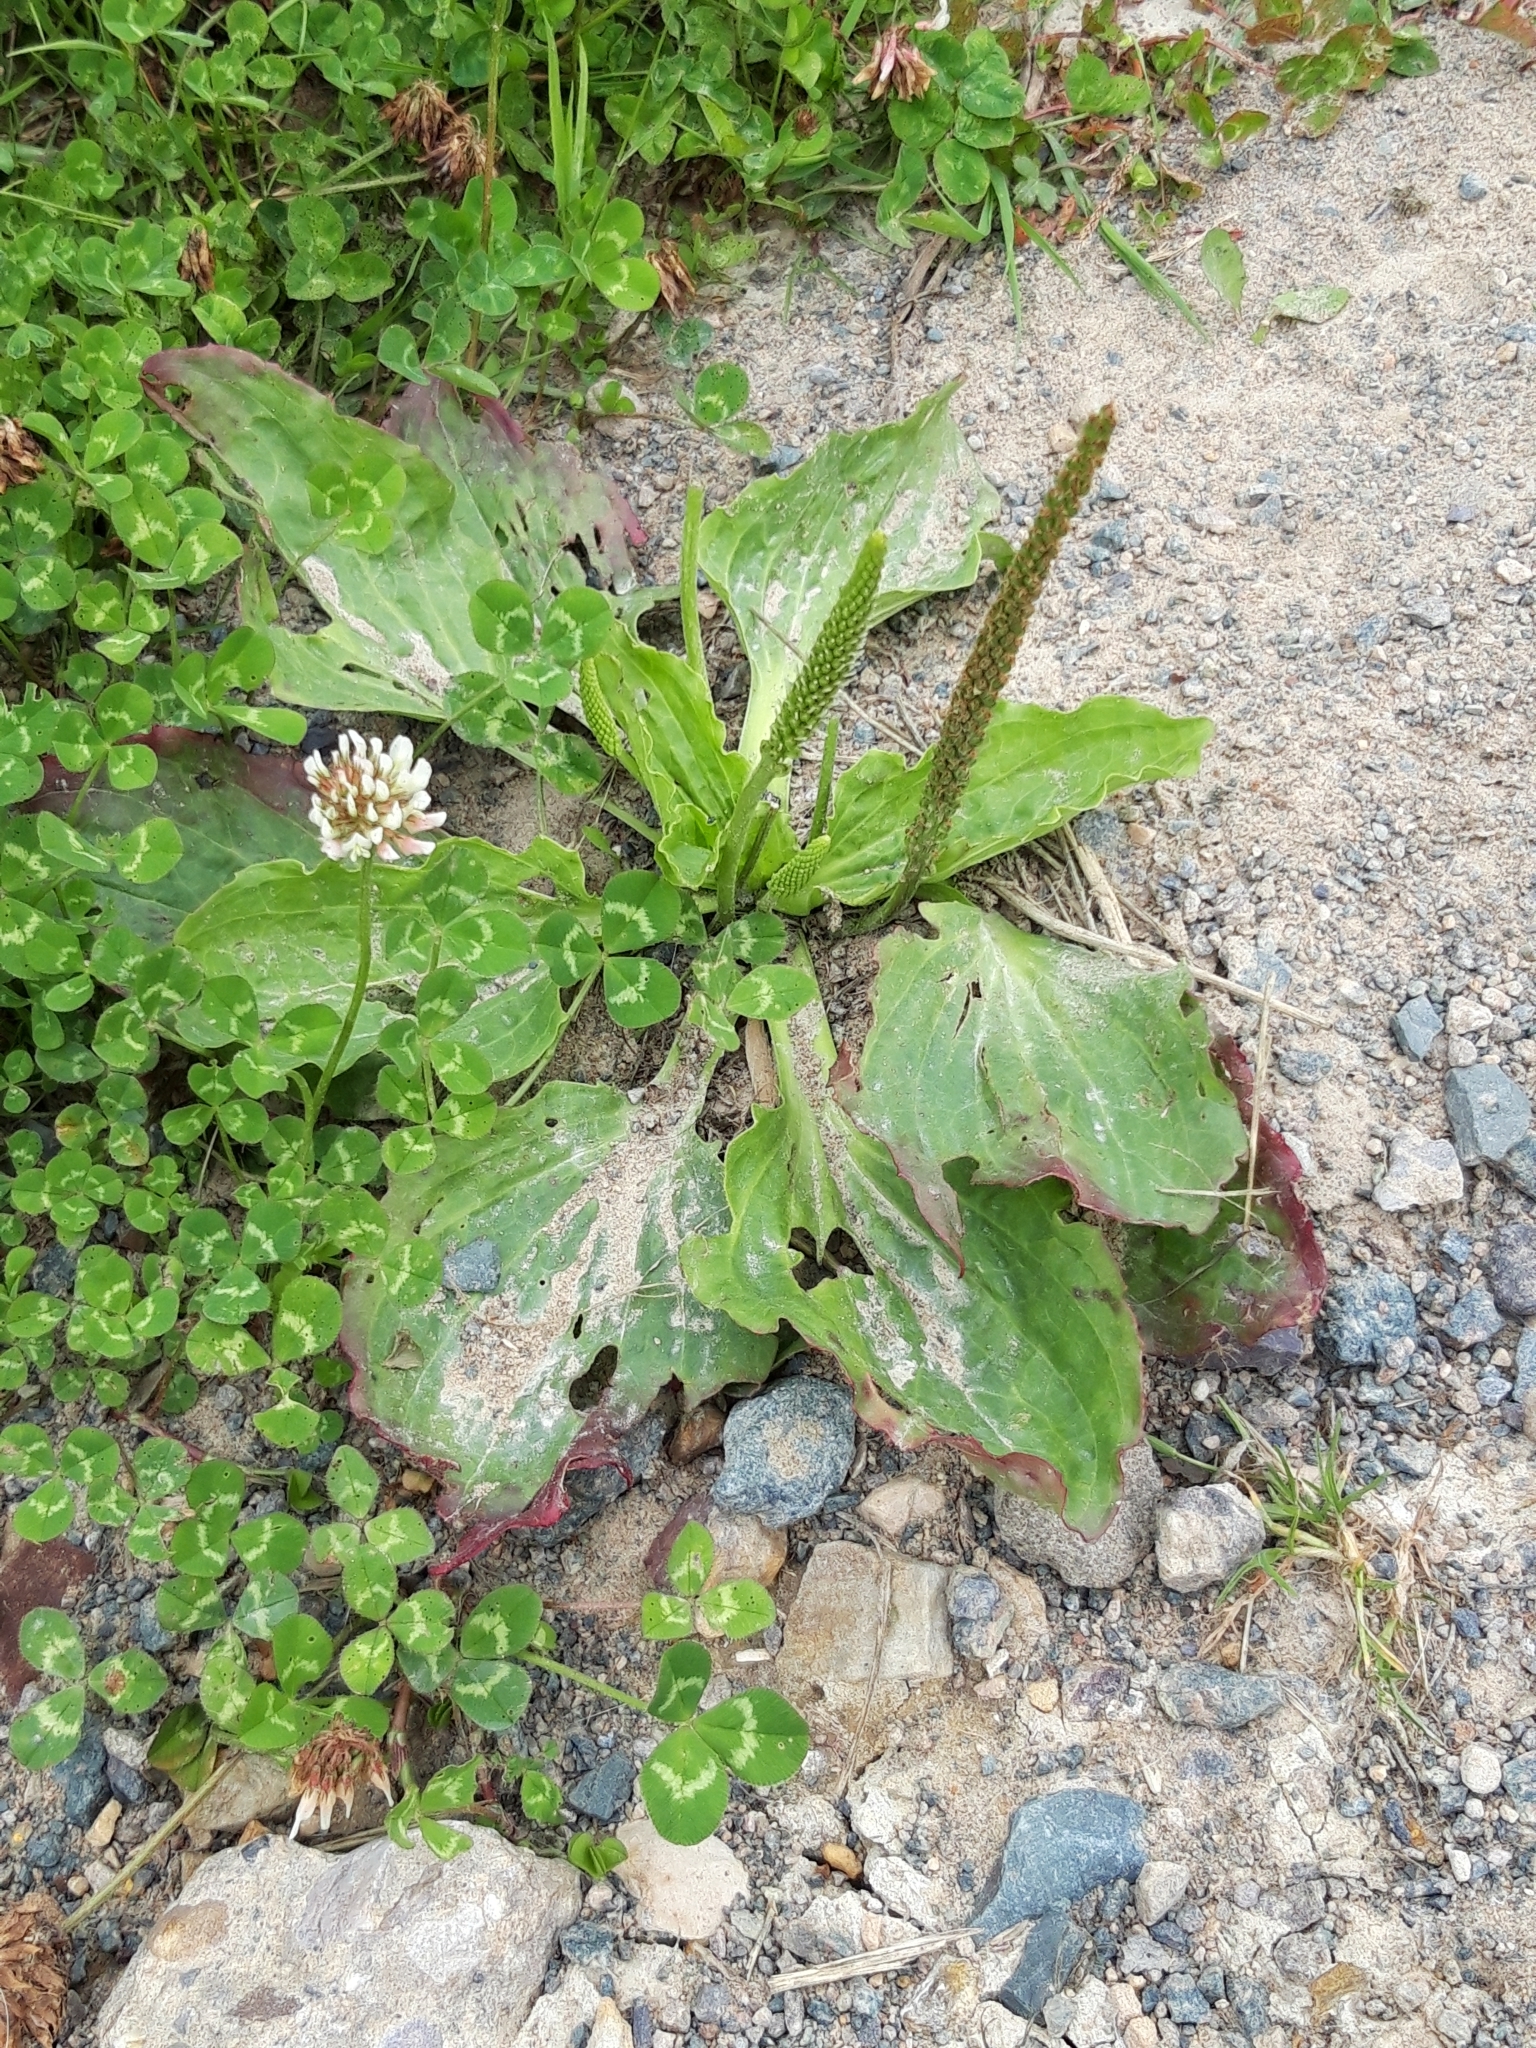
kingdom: Plantae
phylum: Tracheophyta
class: Magnoliopsida
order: Lamiales
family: Plantaginaceae
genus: Plantago
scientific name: Plantago major
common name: Common plantain
